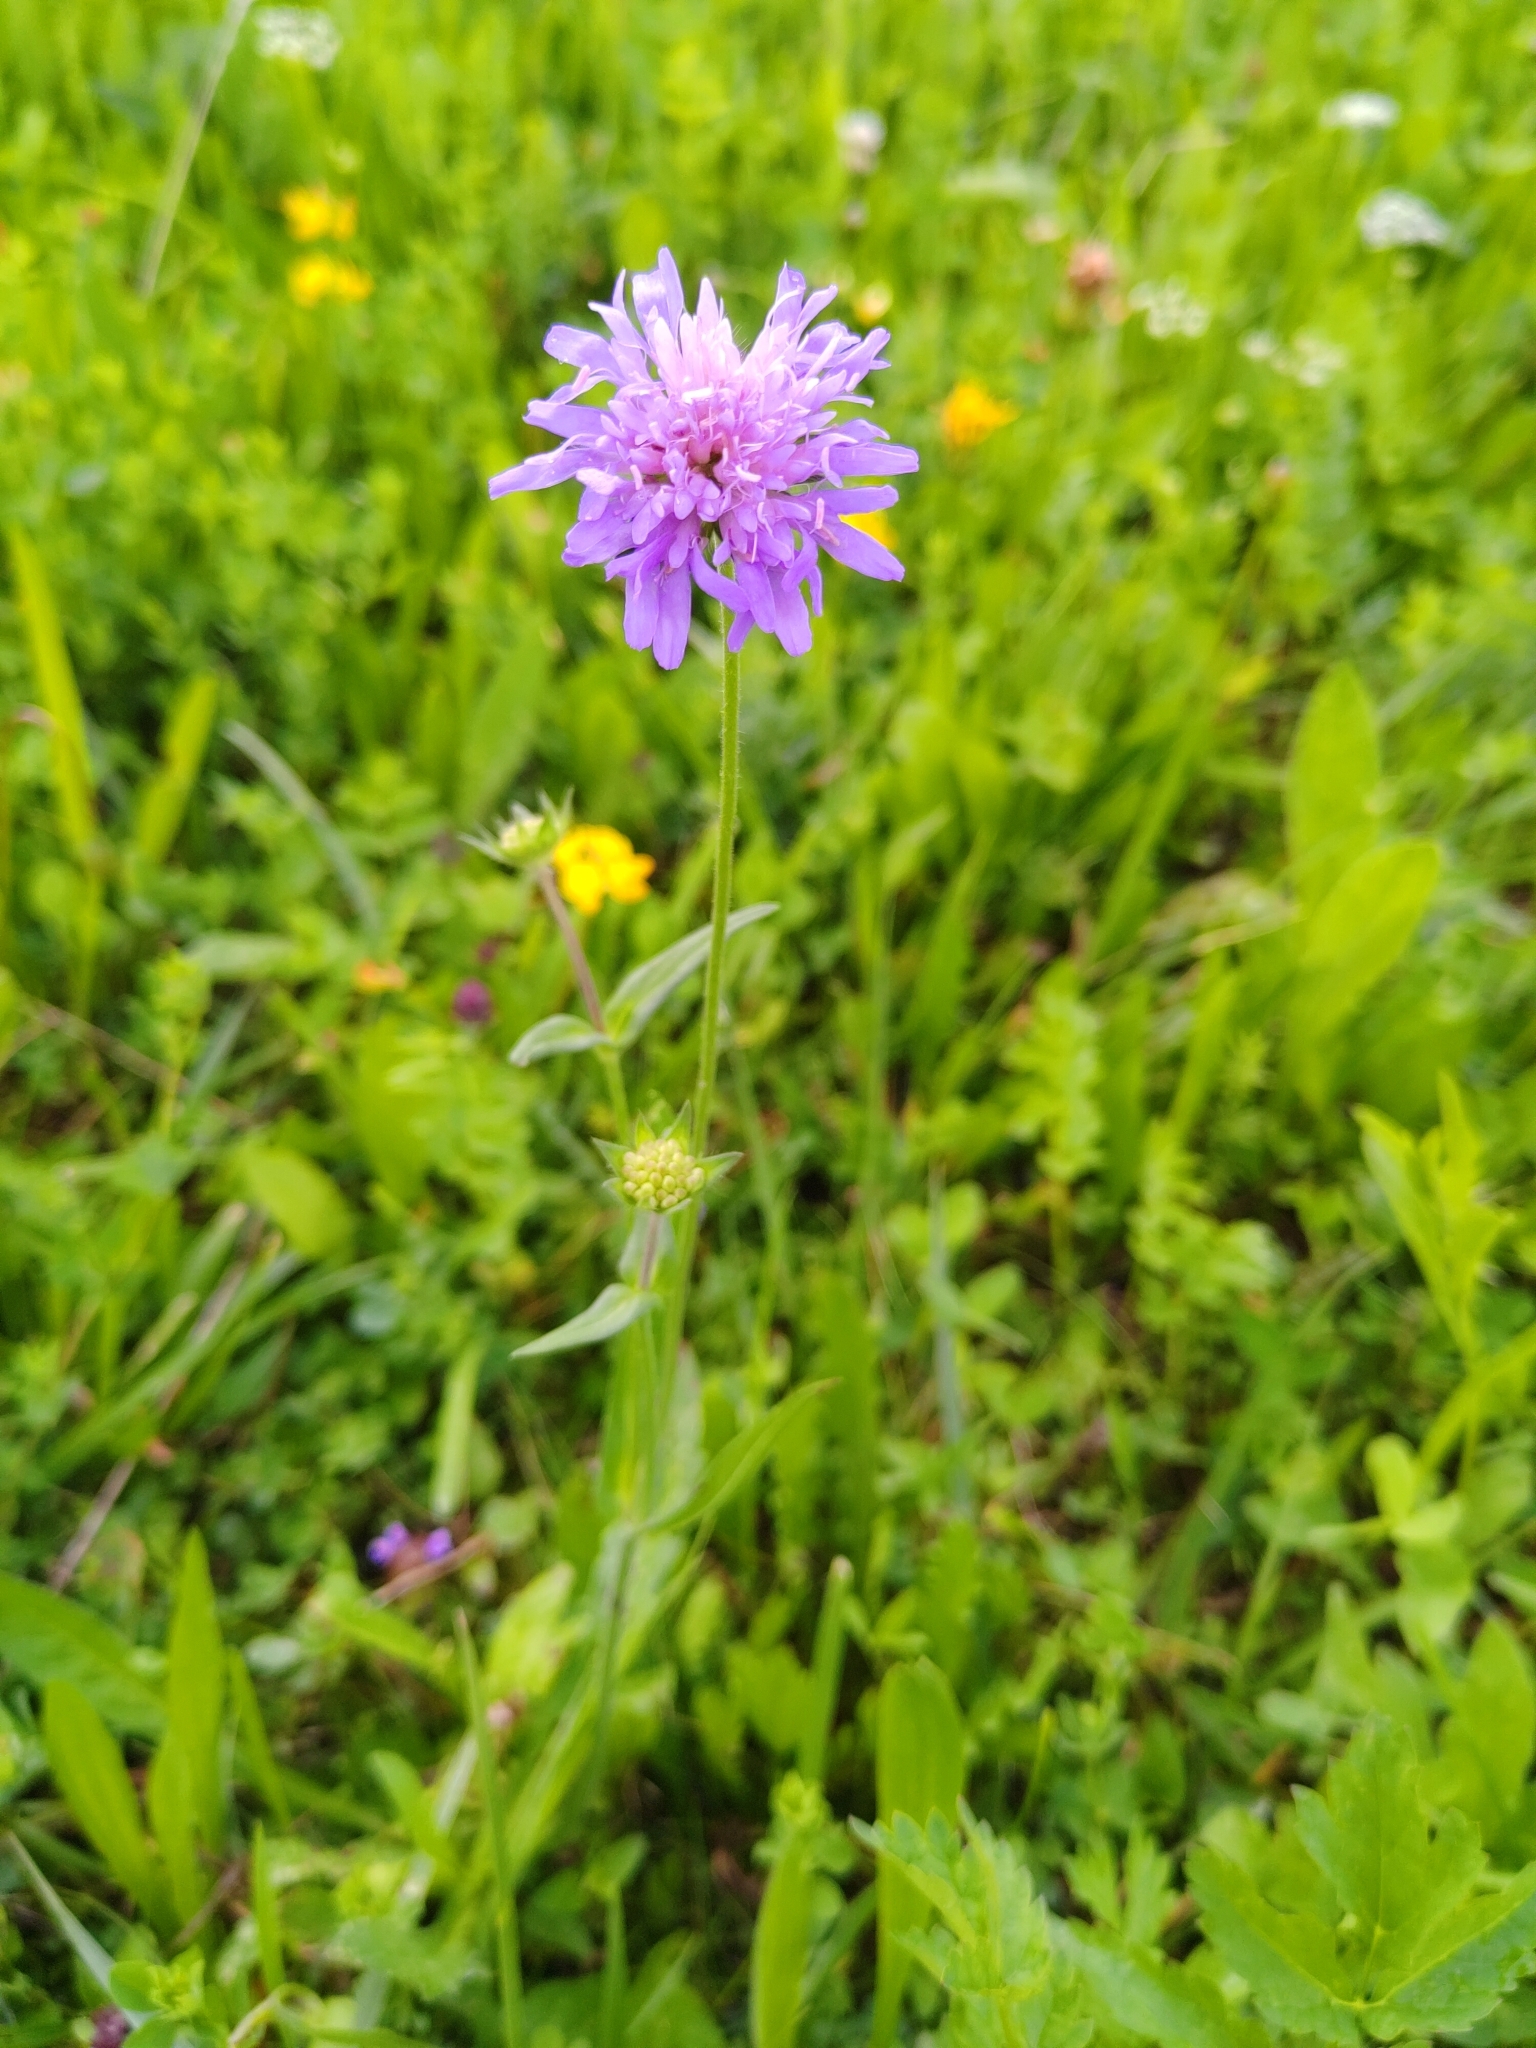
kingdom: Plantae
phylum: Tracheophyta
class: Magnoliopsida
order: Dipsacales
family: Caprifoliaceae
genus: Knautia
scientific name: Knautia arvensis
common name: Field scabiosa
